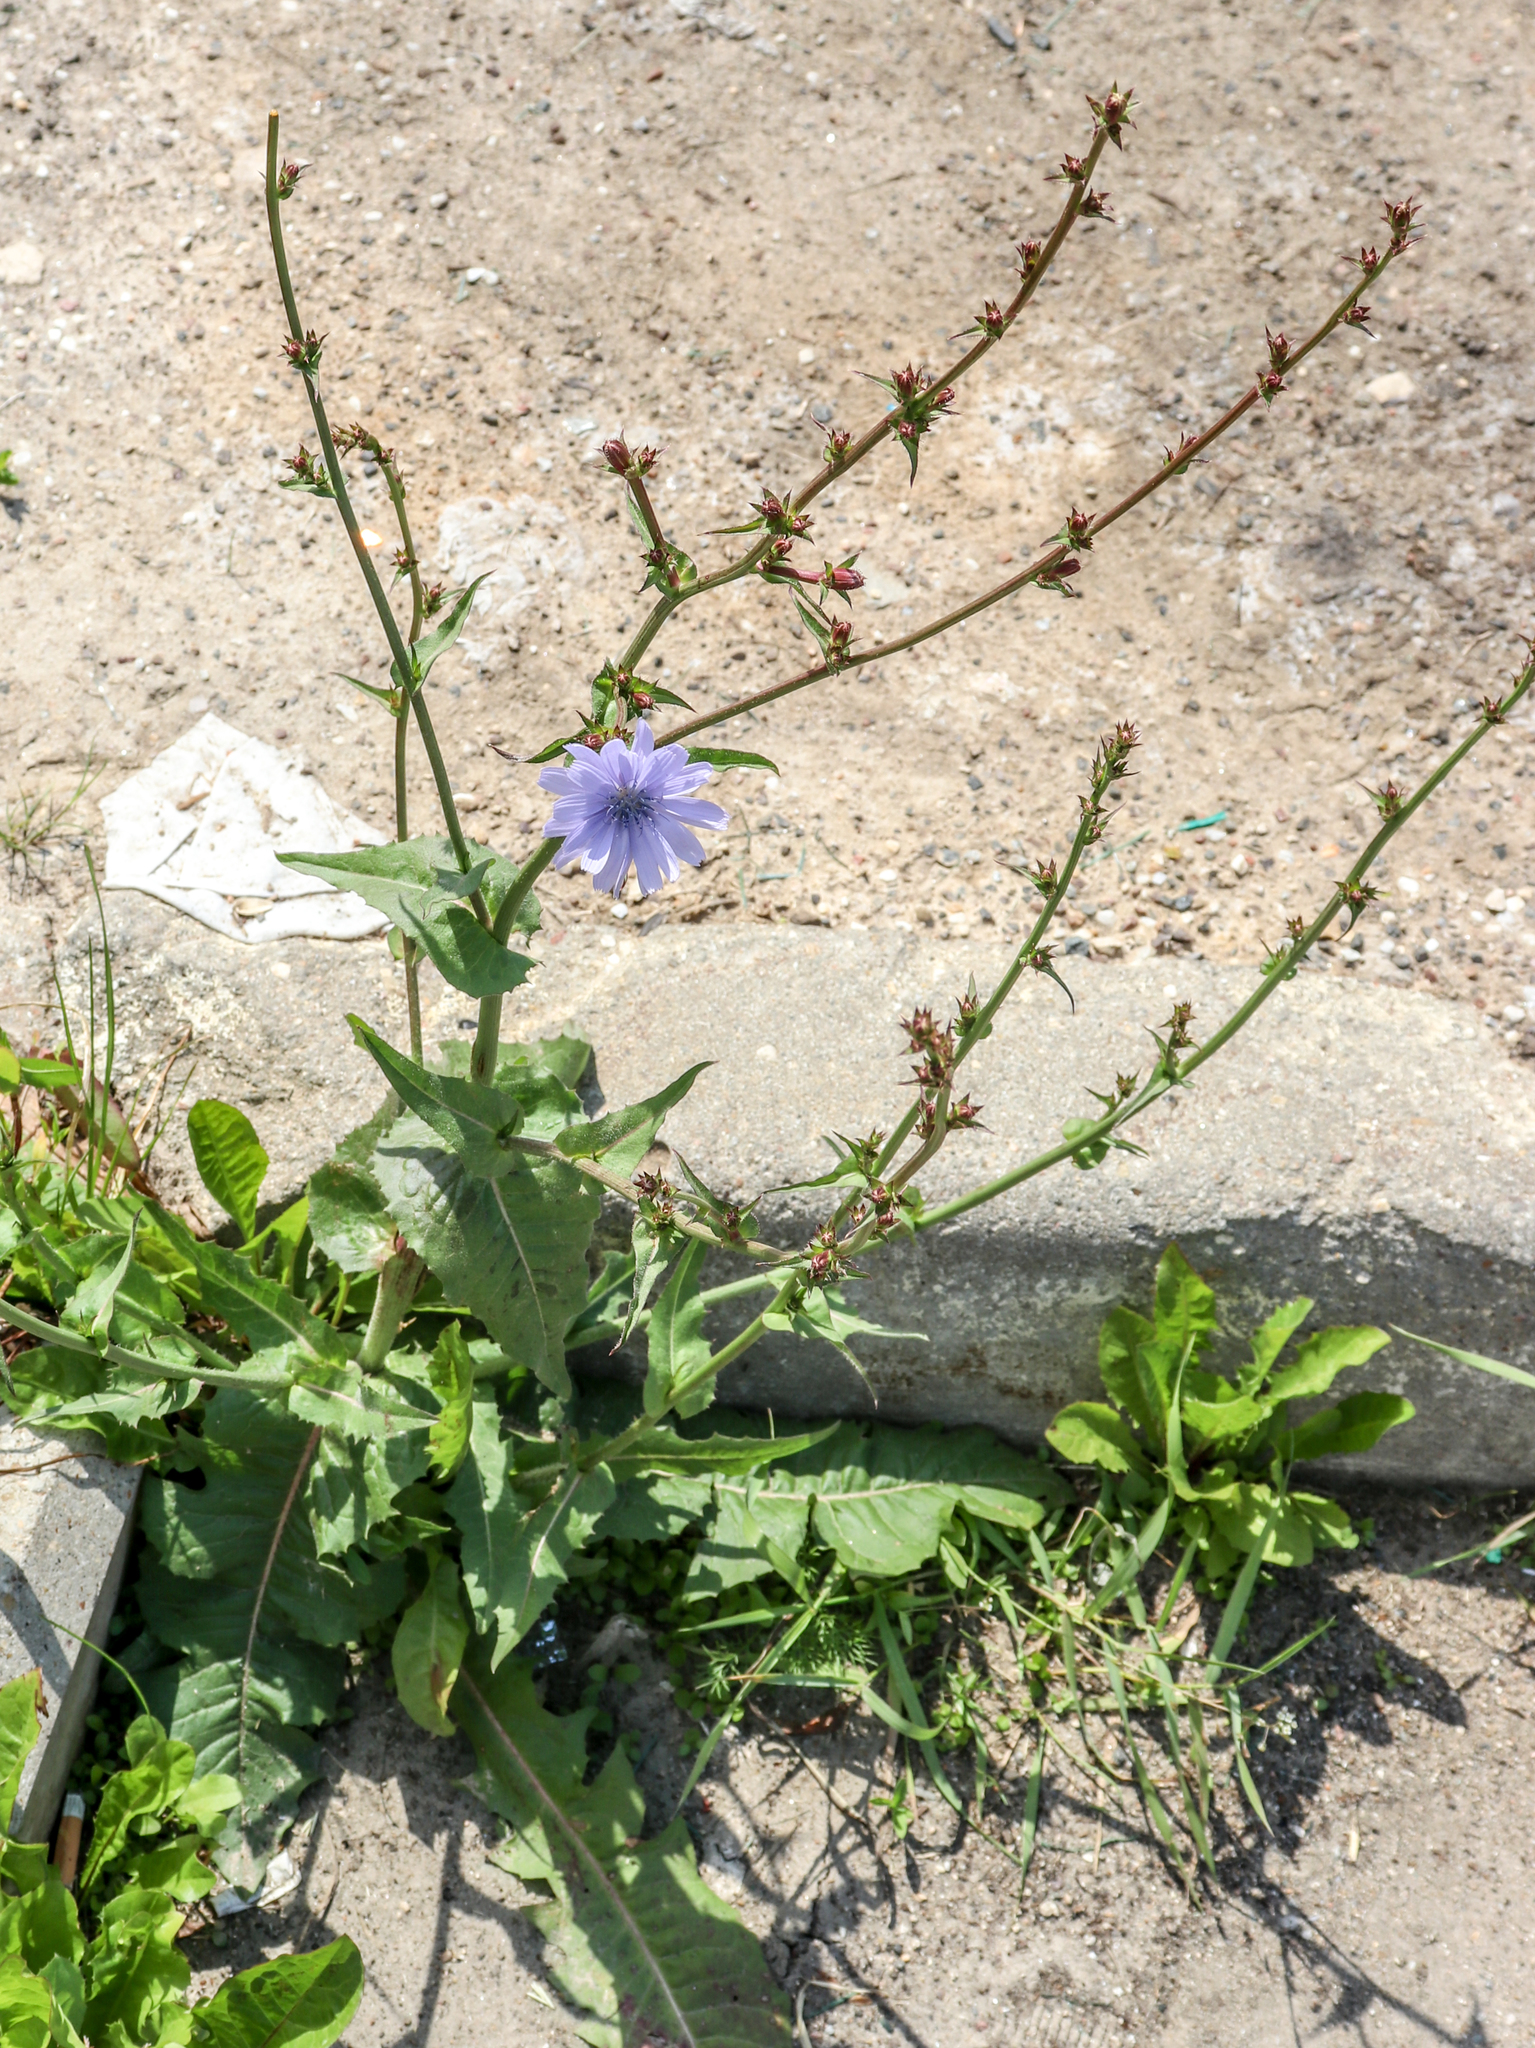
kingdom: Plantae
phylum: Tracheophyta
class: Magnoliopsida
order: Asterales
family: Asteraceae
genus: Cichorium
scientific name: Cichorium intybus
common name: Chicory
